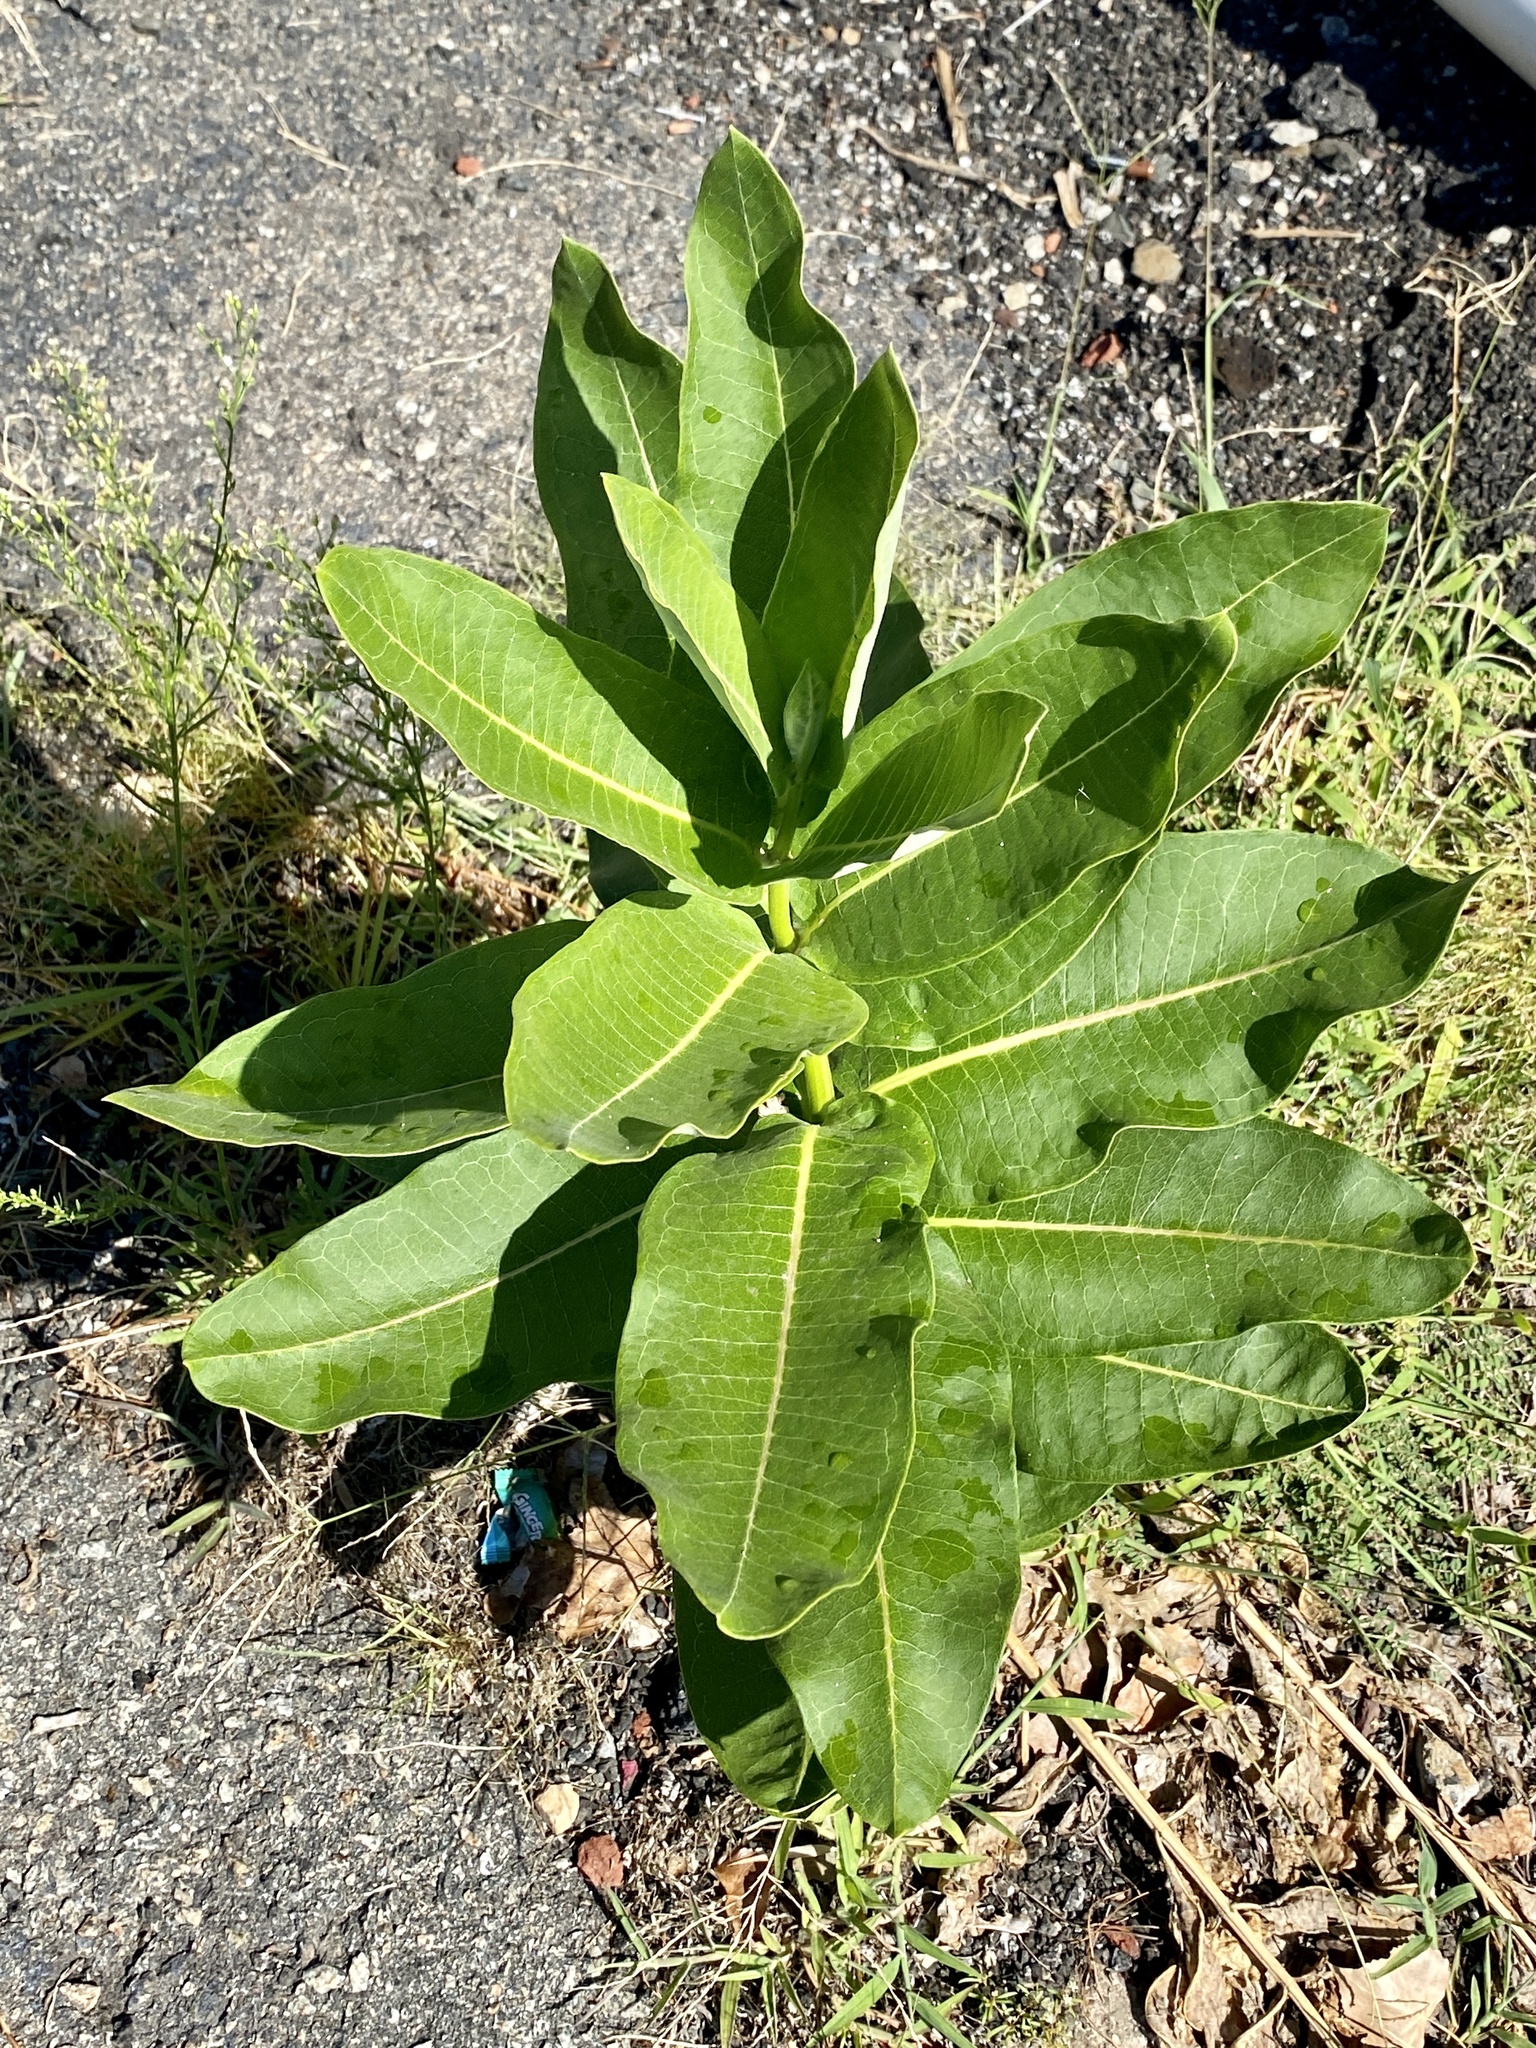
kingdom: Plantae
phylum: Tracheophyta
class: Magnoliopsida
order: Gentianales
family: Apocynaceae
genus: Asclepias
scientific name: Asclepias syriaca
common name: Common milkweed
